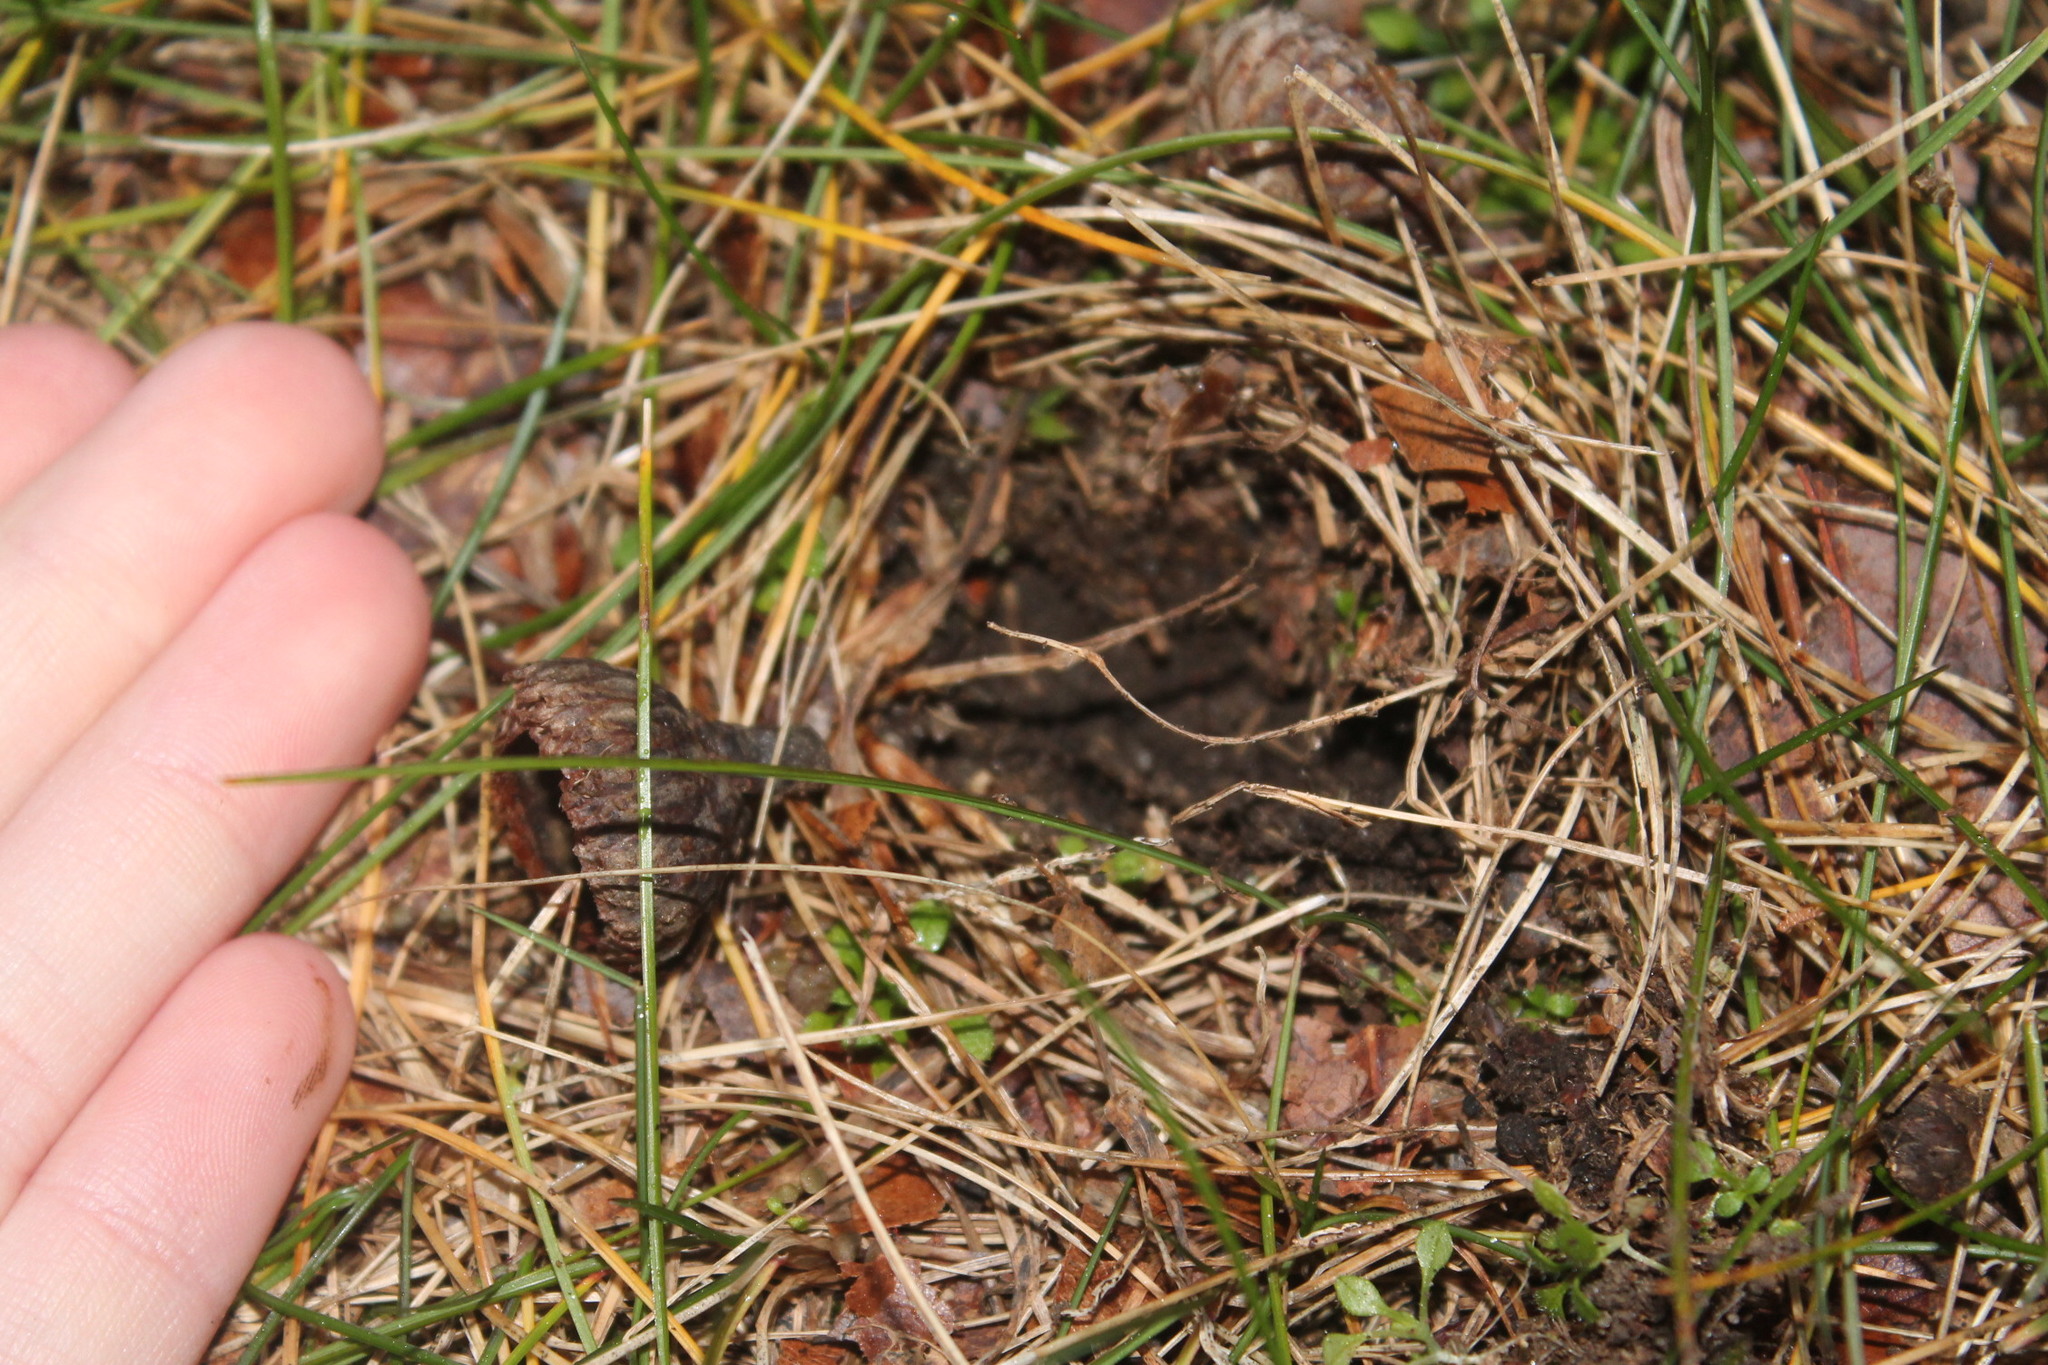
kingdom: Animalia
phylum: Chordata
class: Mammalia
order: Rodentia
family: Sciuridae
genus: Sciurus
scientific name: Sciurus carolinensis
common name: Eastern gray squirrel
